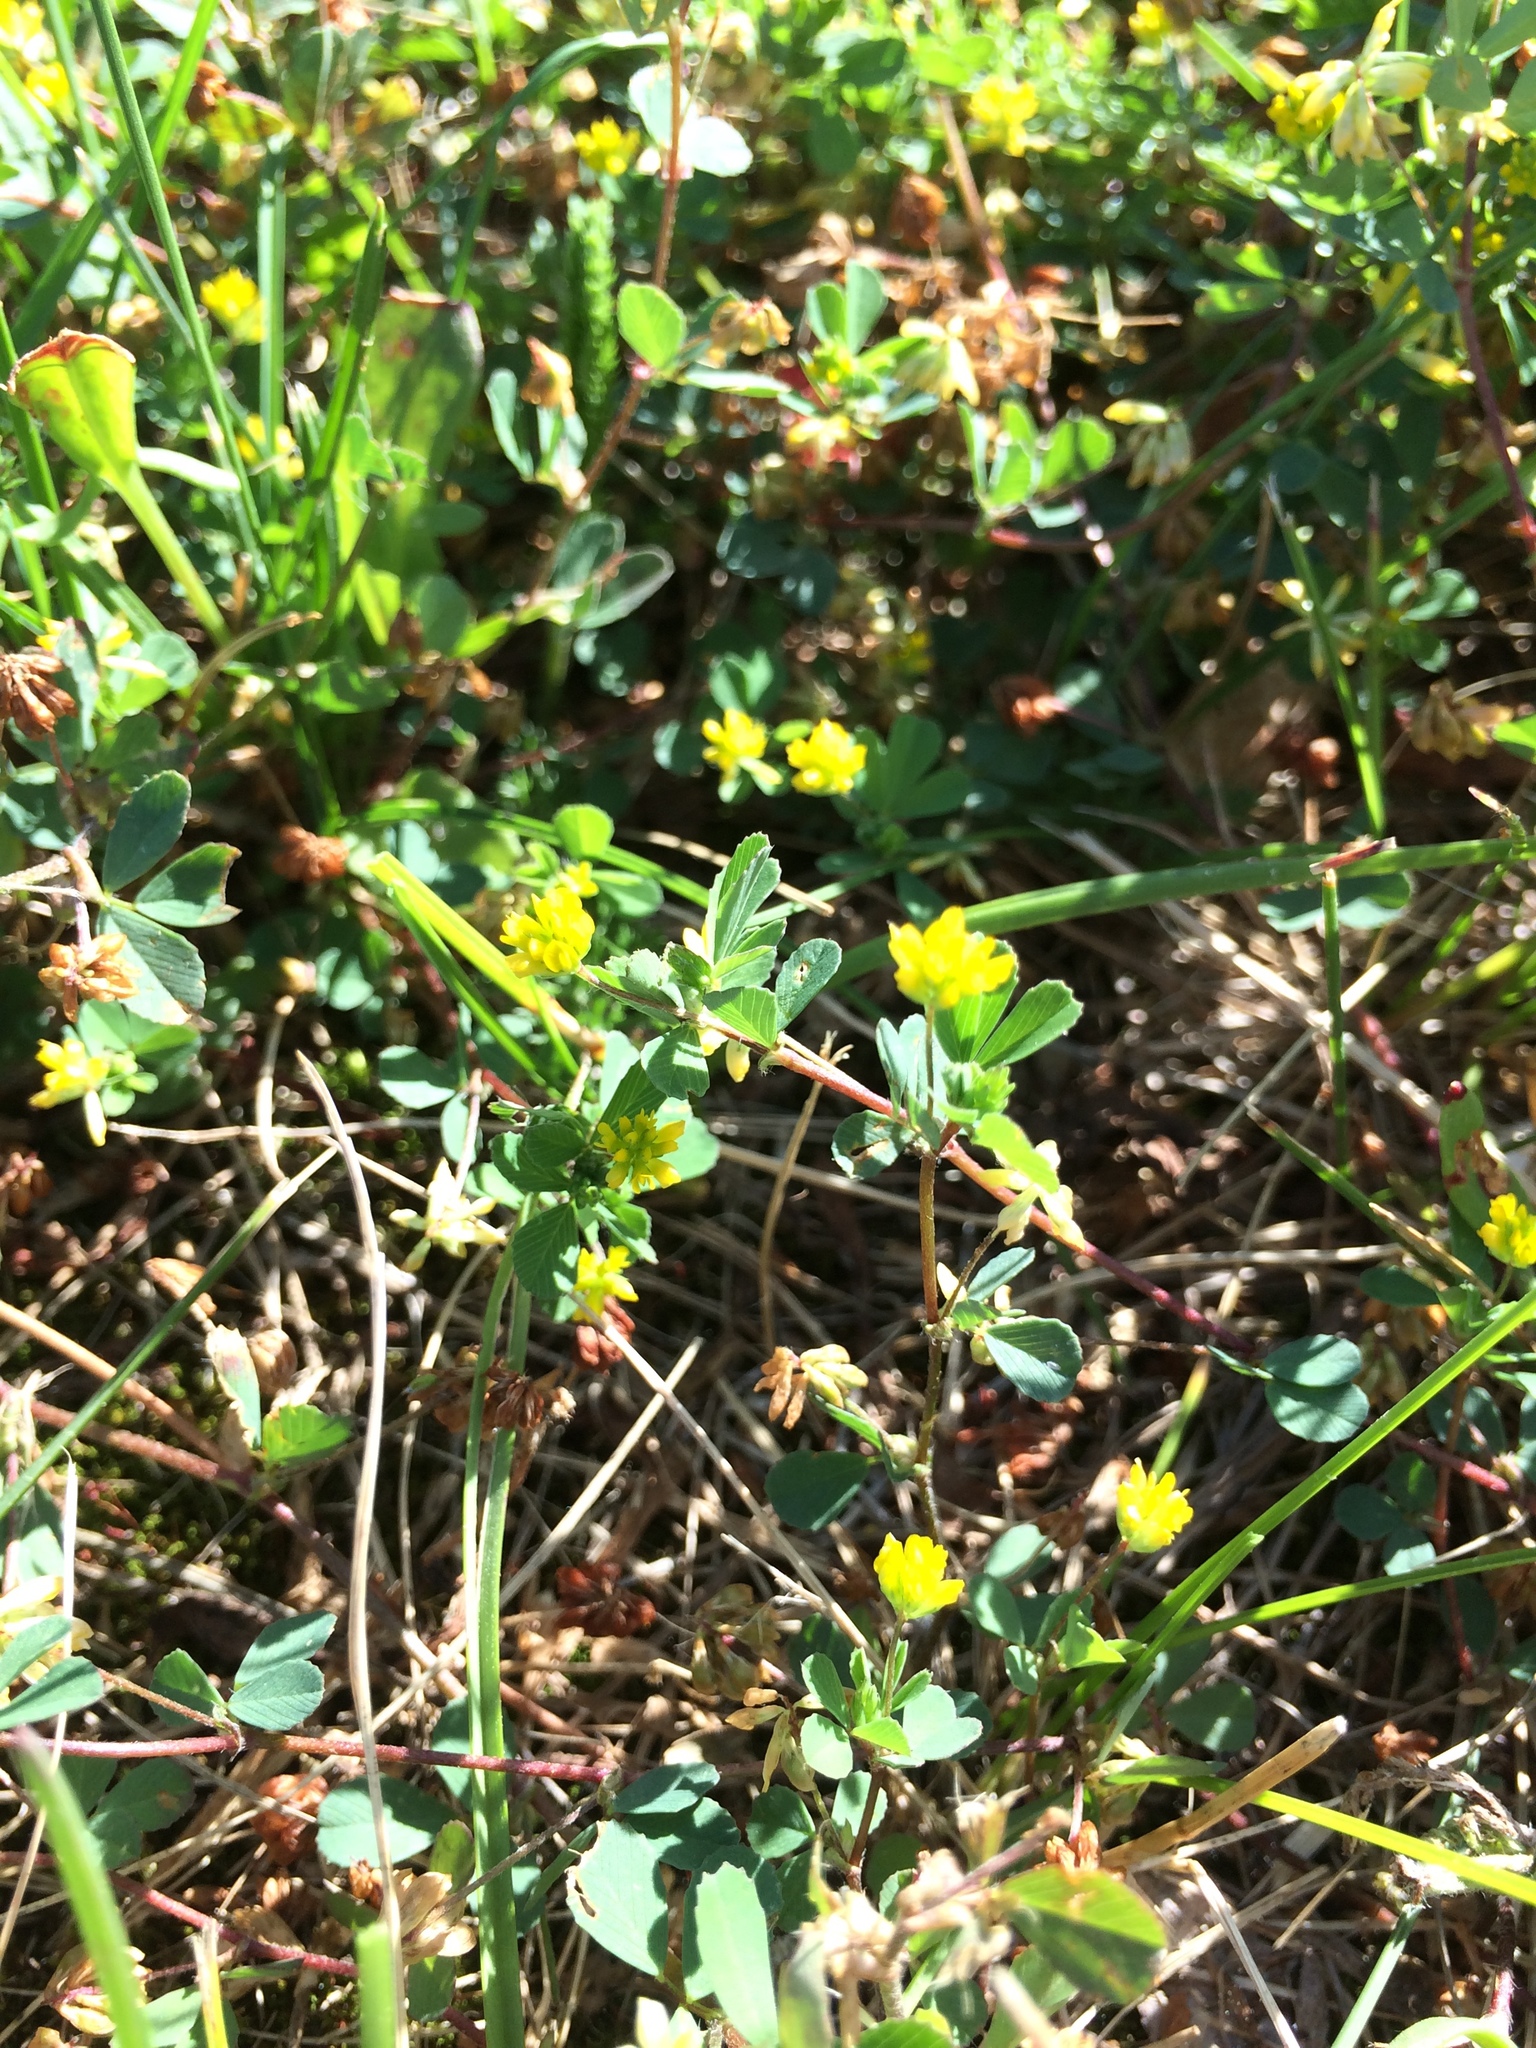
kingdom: Plantae
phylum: Tracheophyta
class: Magnoliopsida
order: Fabales
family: Fabaceae
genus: Trifolium
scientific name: Trifolium dubium
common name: Suckling clover
